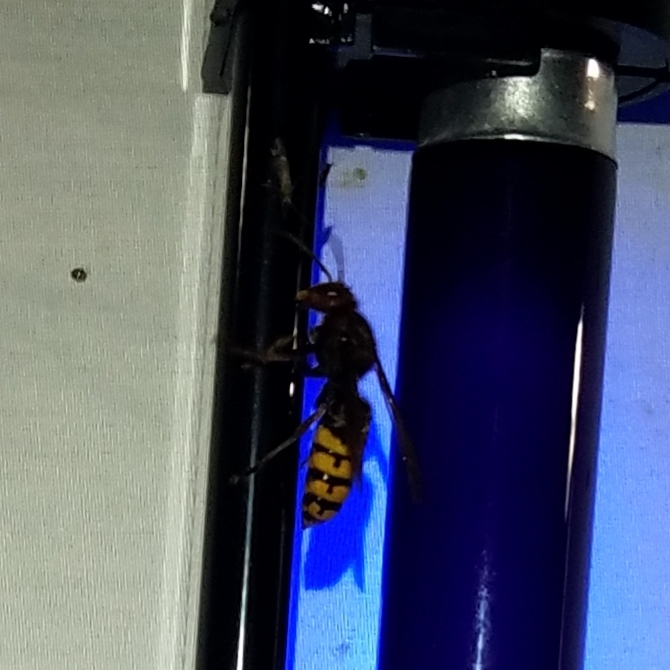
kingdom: Animalia
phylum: Arthropoda
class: Insecta
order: Hymenoptera
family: Vespidae
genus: Vespa
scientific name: Vespa crabro
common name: Hornet
